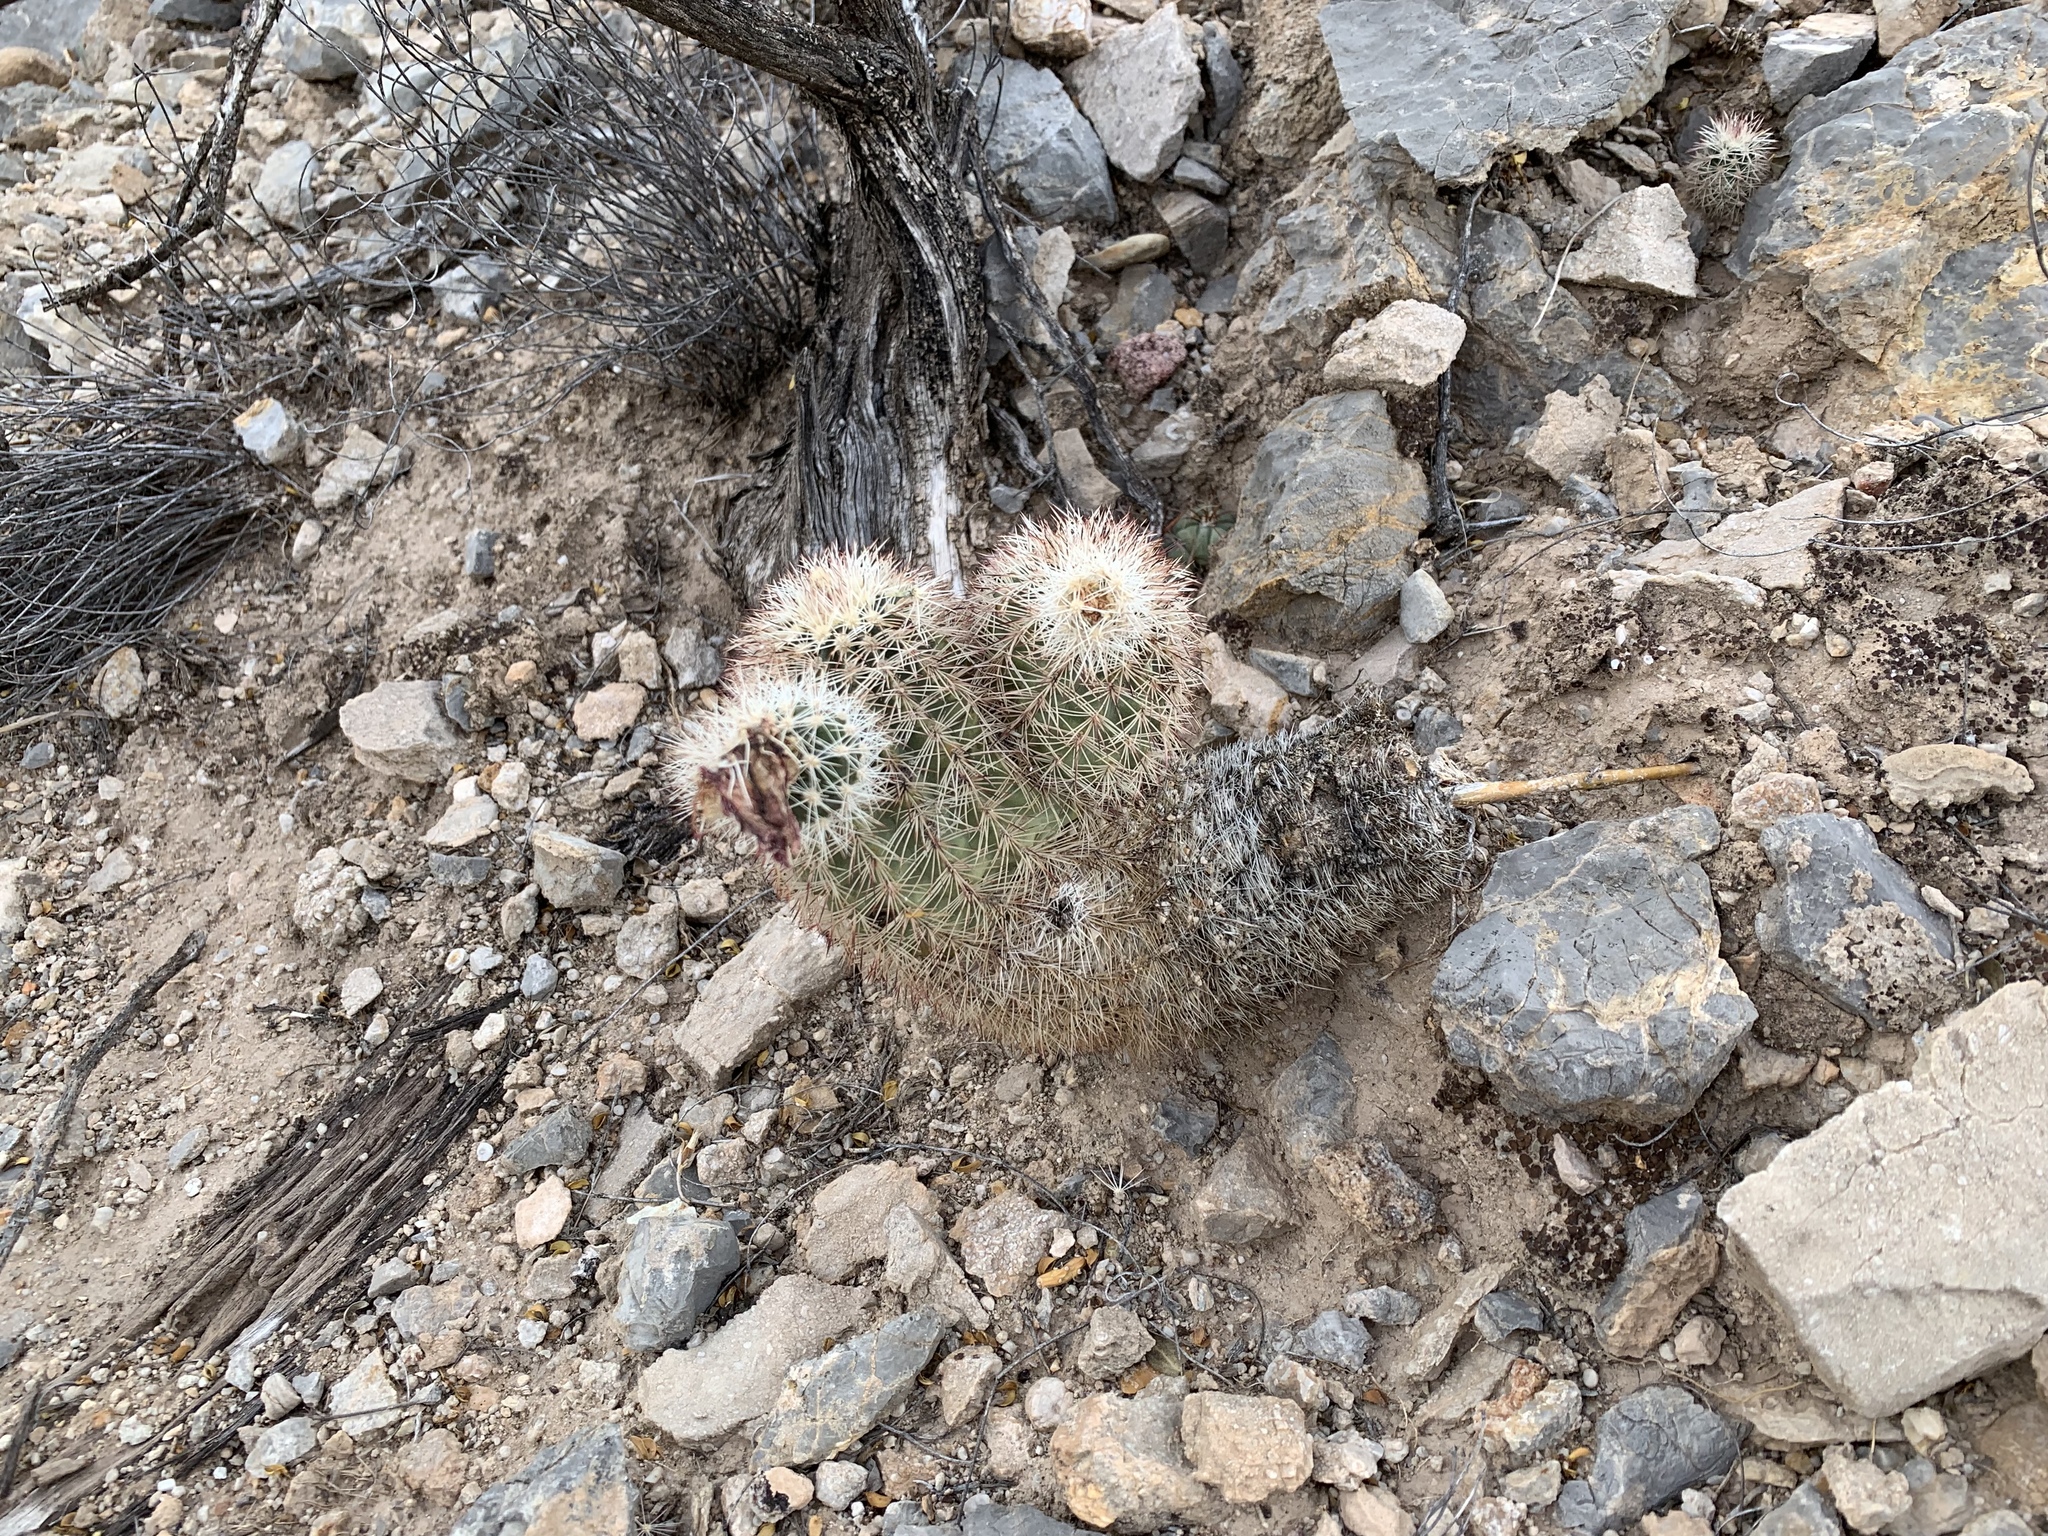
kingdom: Plantae
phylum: Tracheophyta
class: Magnoliopsida
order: Caryophyllales
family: Cactaceae
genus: Echinocereus
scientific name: Echinocereus dasyacanthus
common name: Spiny hedgehog cactus
